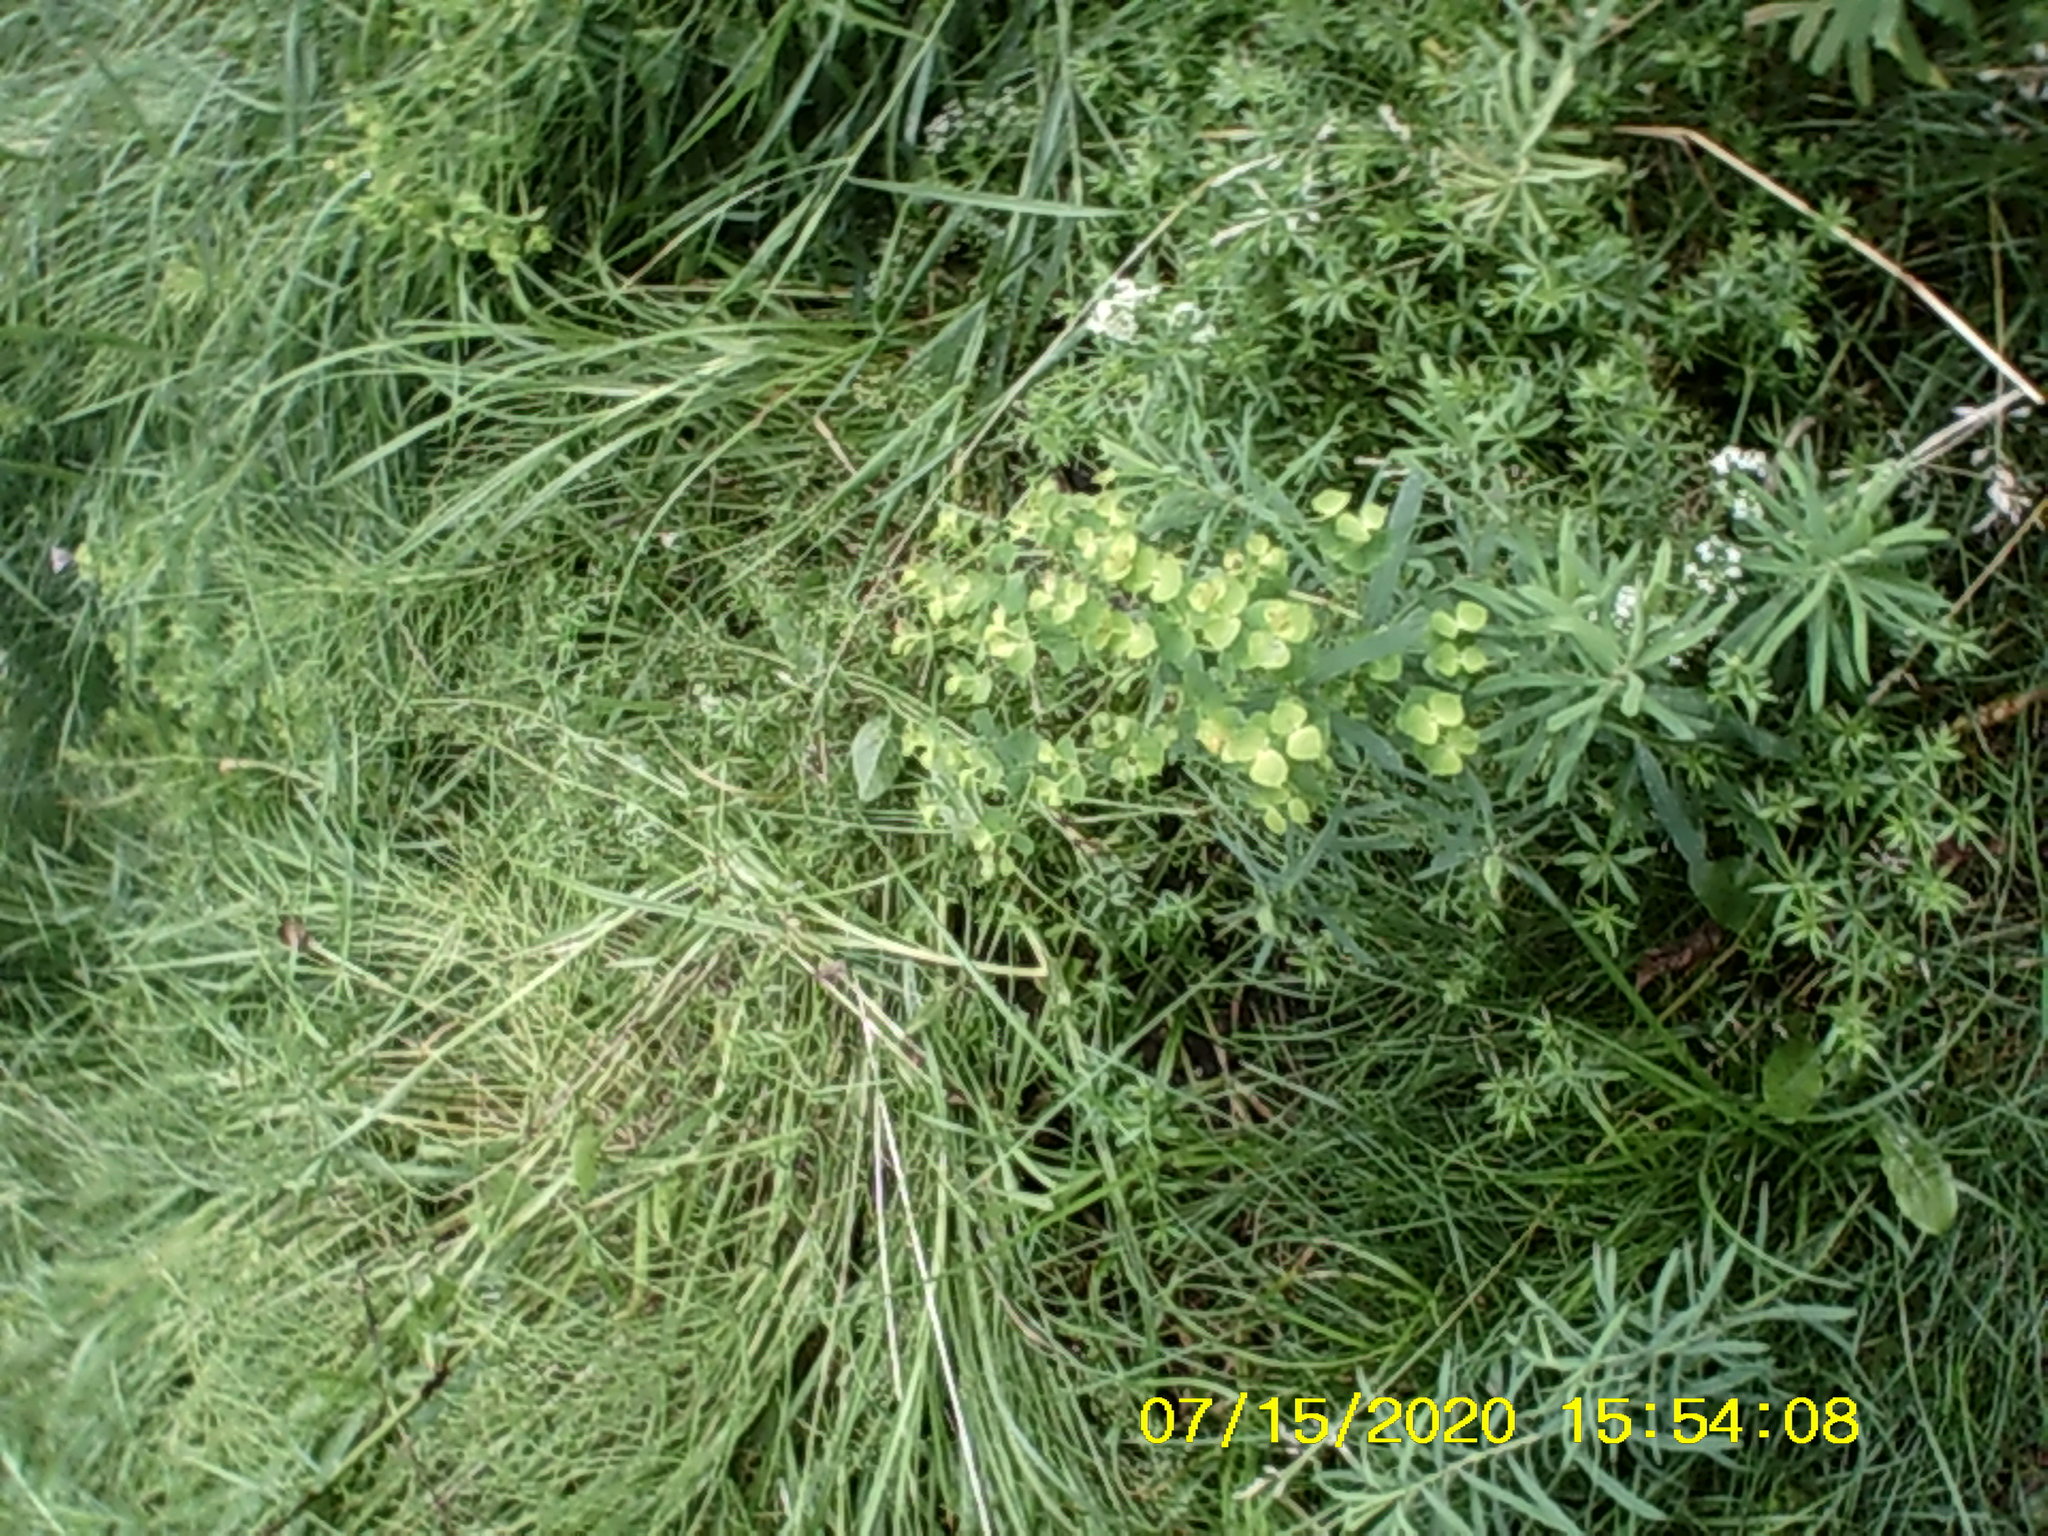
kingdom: Plantae
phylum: Tracheophyta
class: Magnoliopsida
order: Malpighiales
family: Euphorbiaceae
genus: Euphorbia
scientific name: Euphorbia virgata
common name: Leafy spurge
